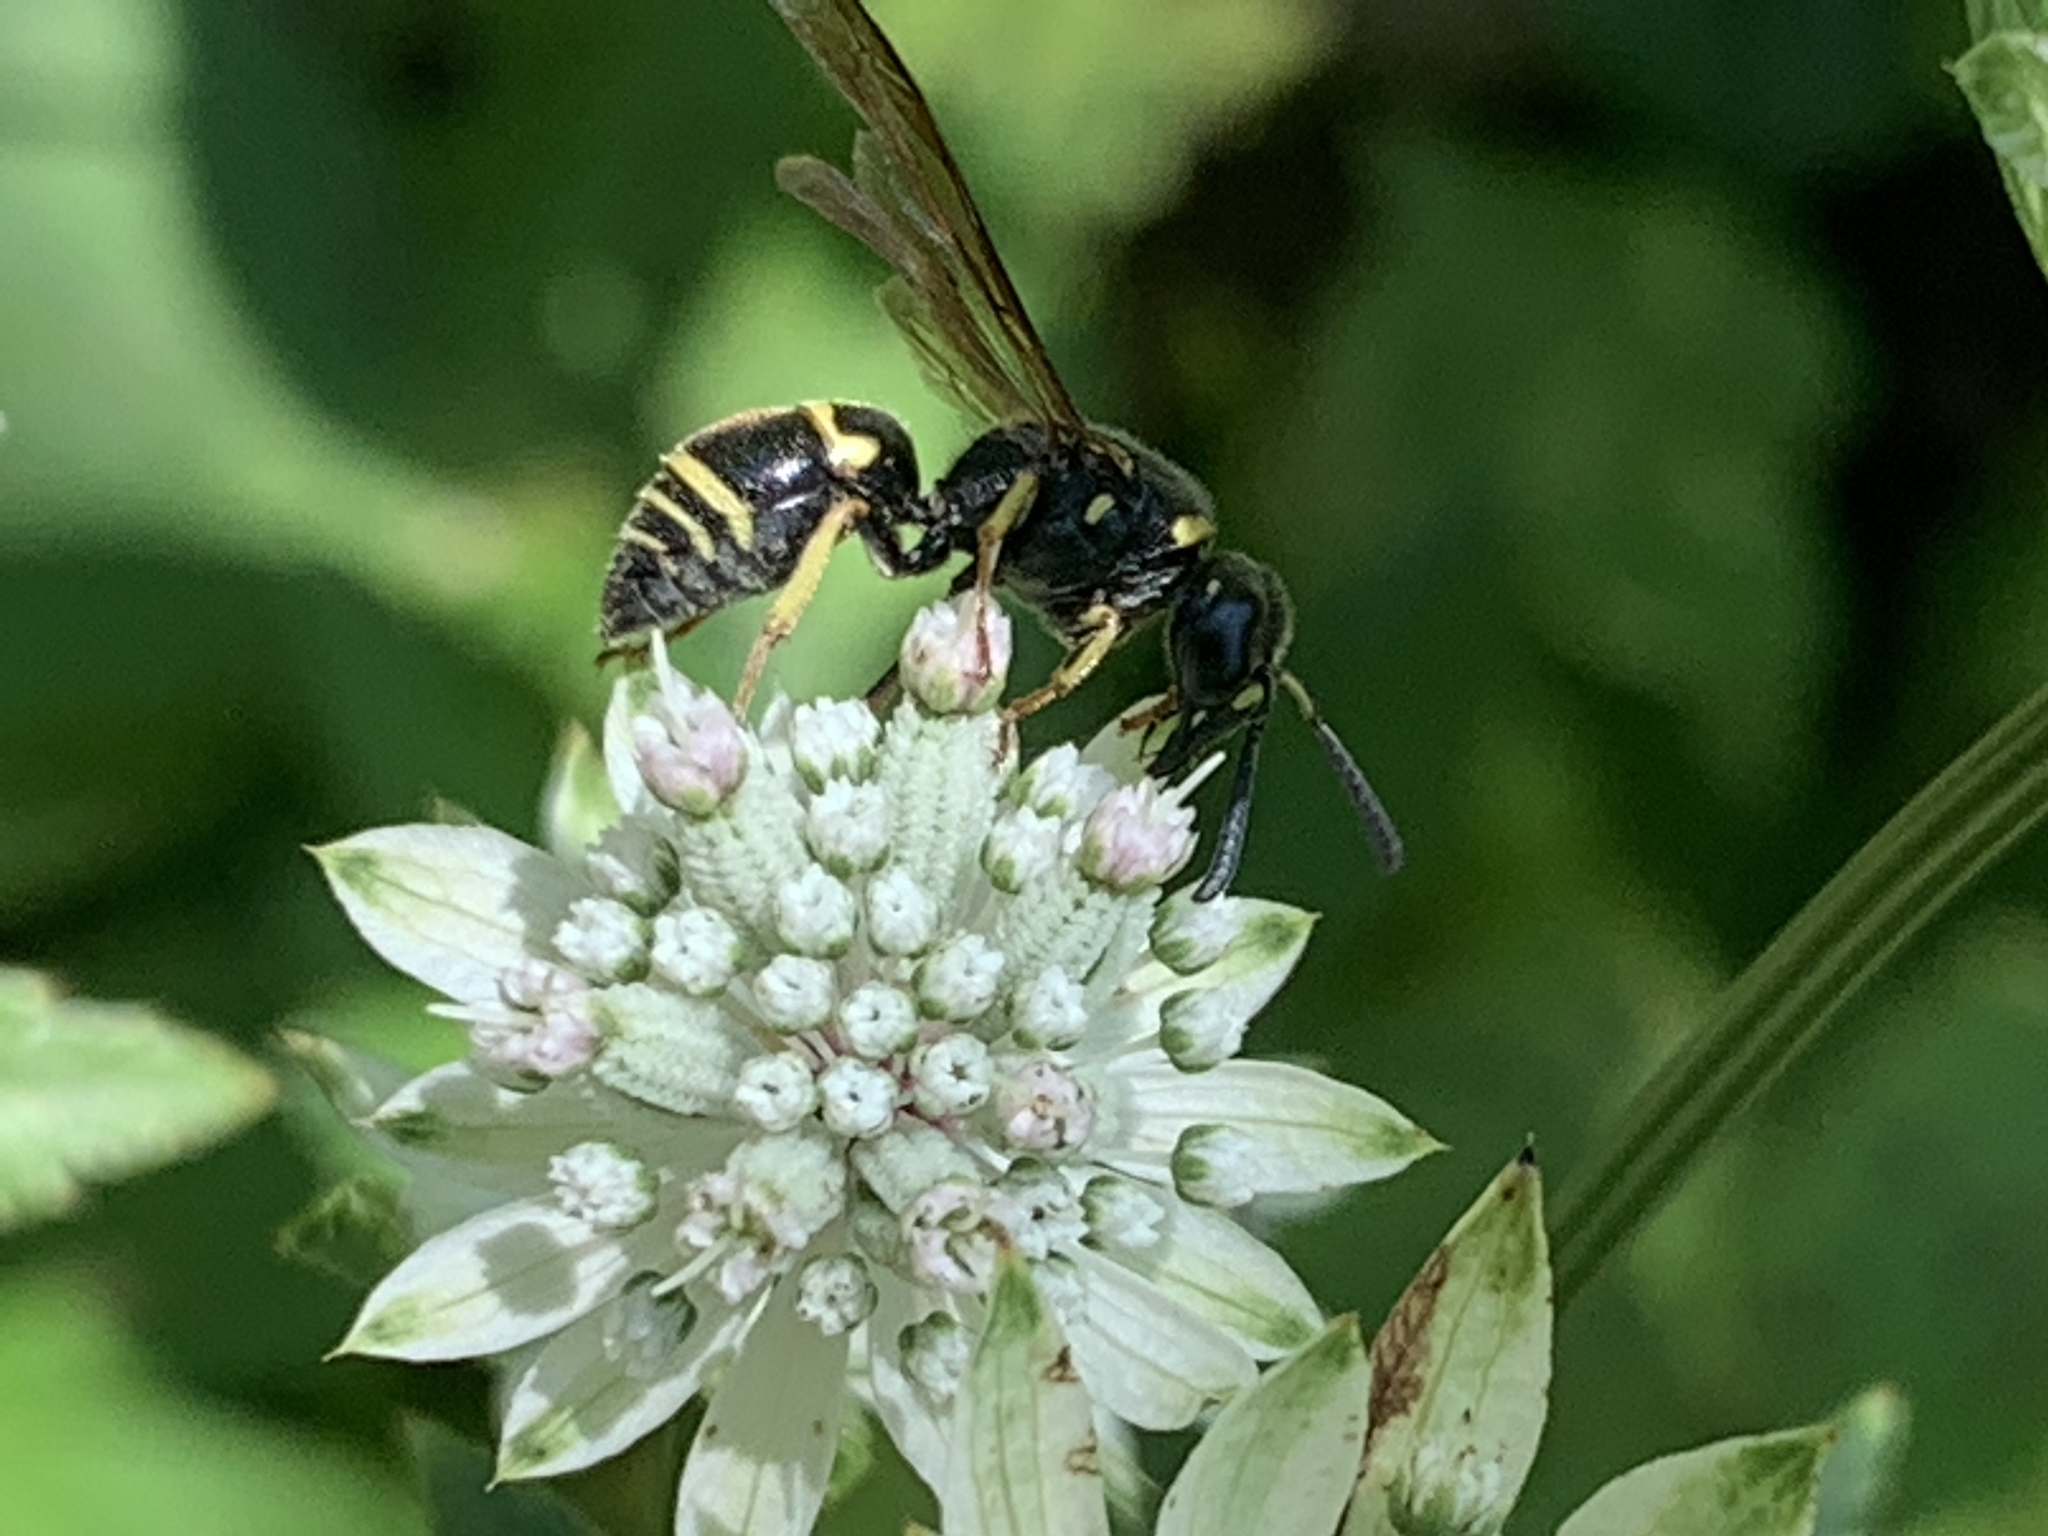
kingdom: Animalia
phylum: Arthropoda
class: Insecta
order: Hymenoptera
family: Eumenidae
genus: Euodynerus
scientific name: Euodynerus foraminatus
